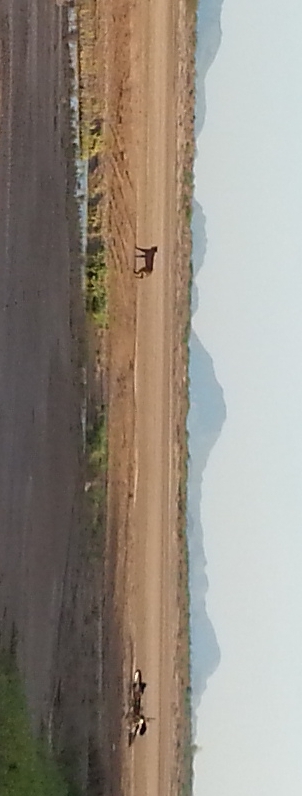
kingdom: Animalia
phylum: Chordata
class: Mammalia
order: Carnivora
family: Felidae
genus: Lynx
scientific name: Lynx rufus
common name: Bobcat
